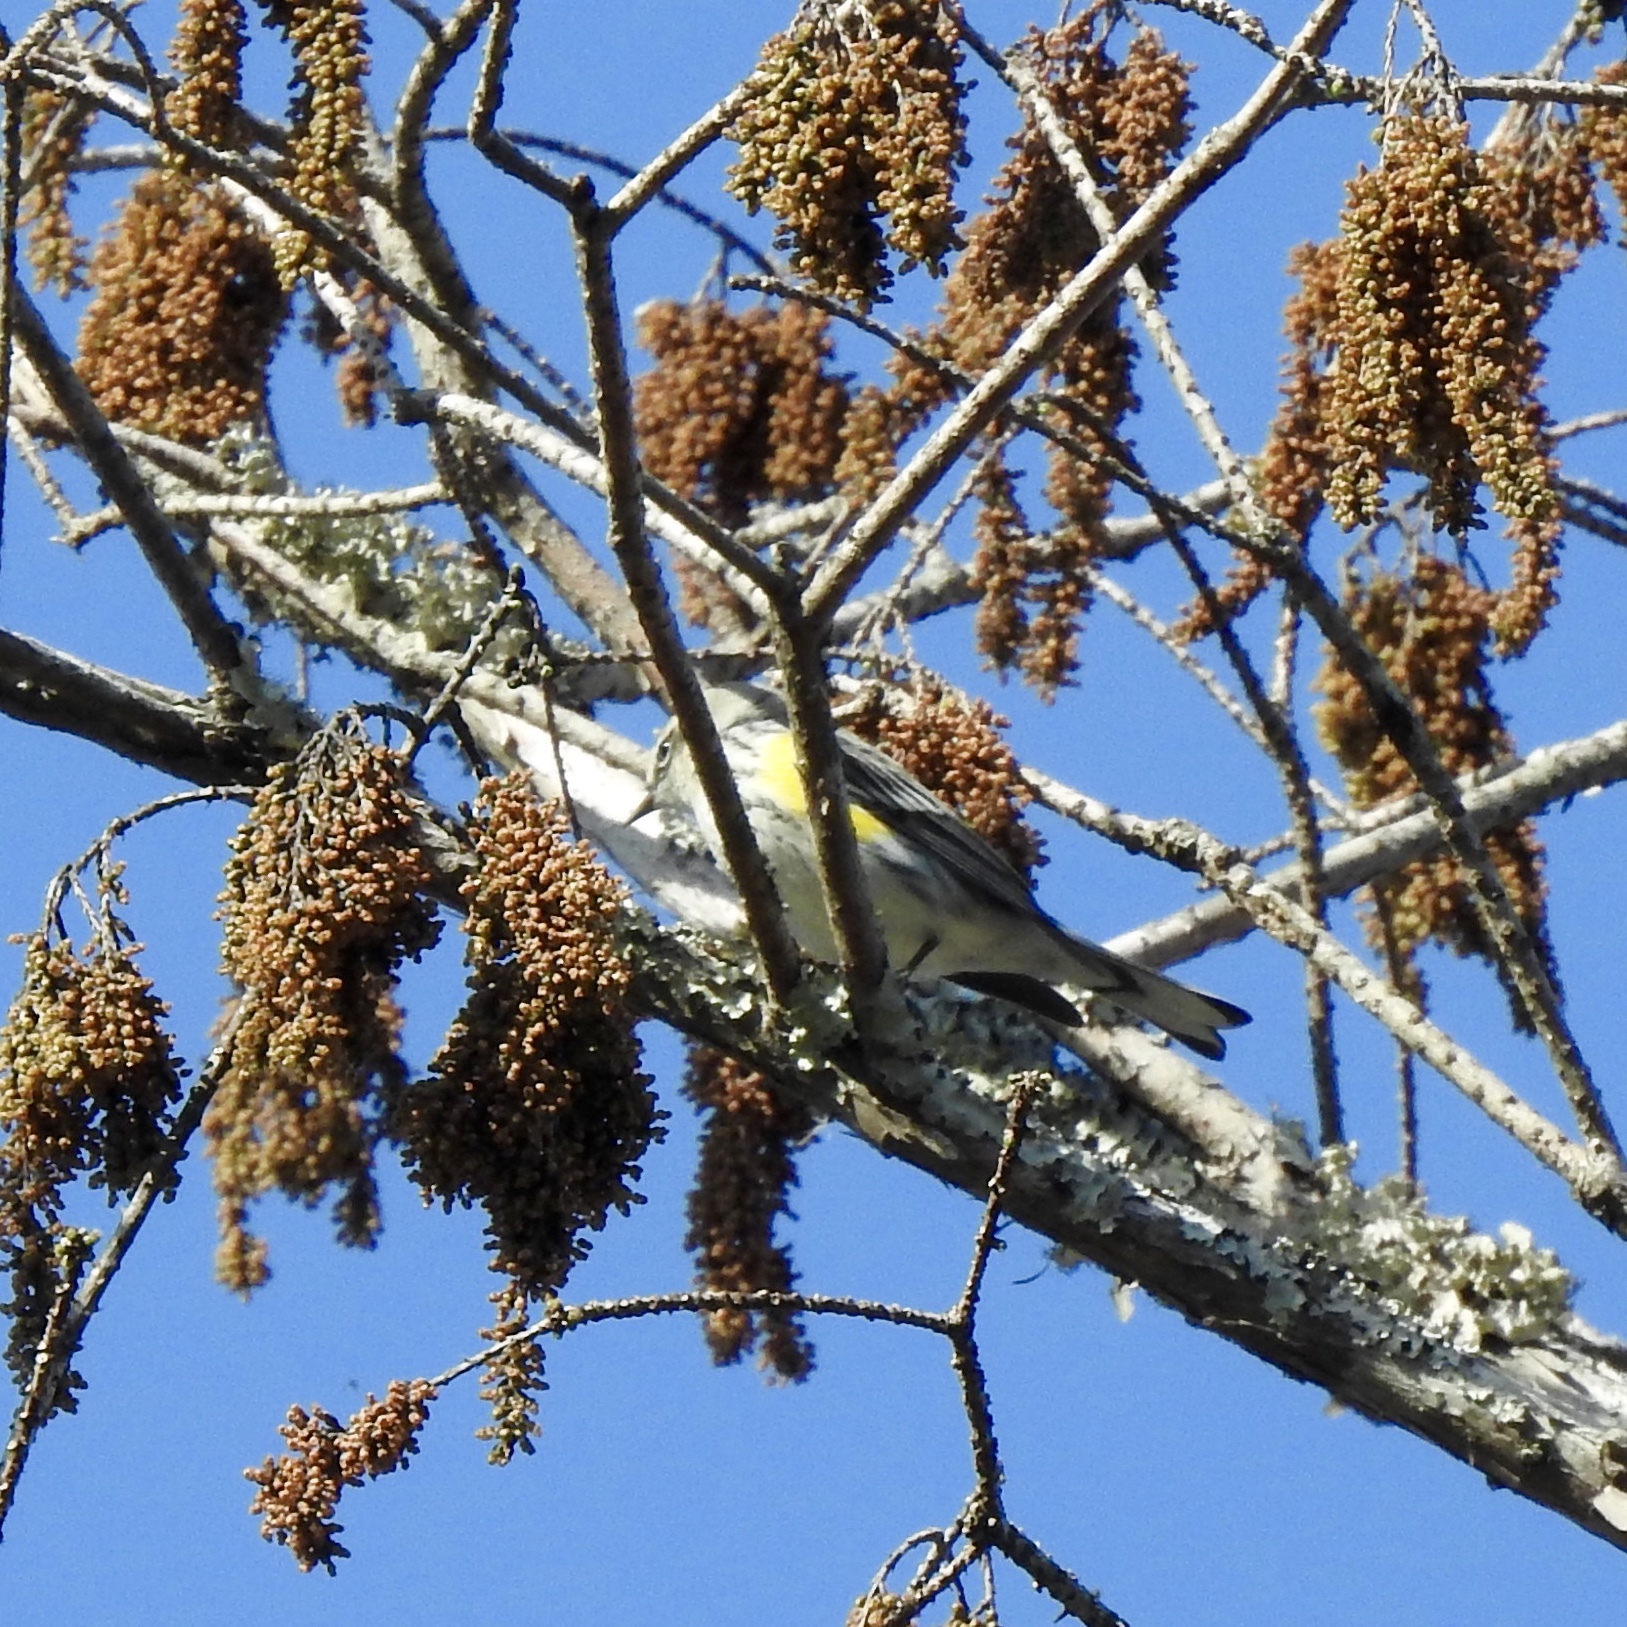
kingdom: Animalia
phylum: Chordata
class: Aves
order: Passeriformes
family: Parulidae
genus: Setophaga
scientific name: Setophaga coronata
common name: Myrtle warbler
